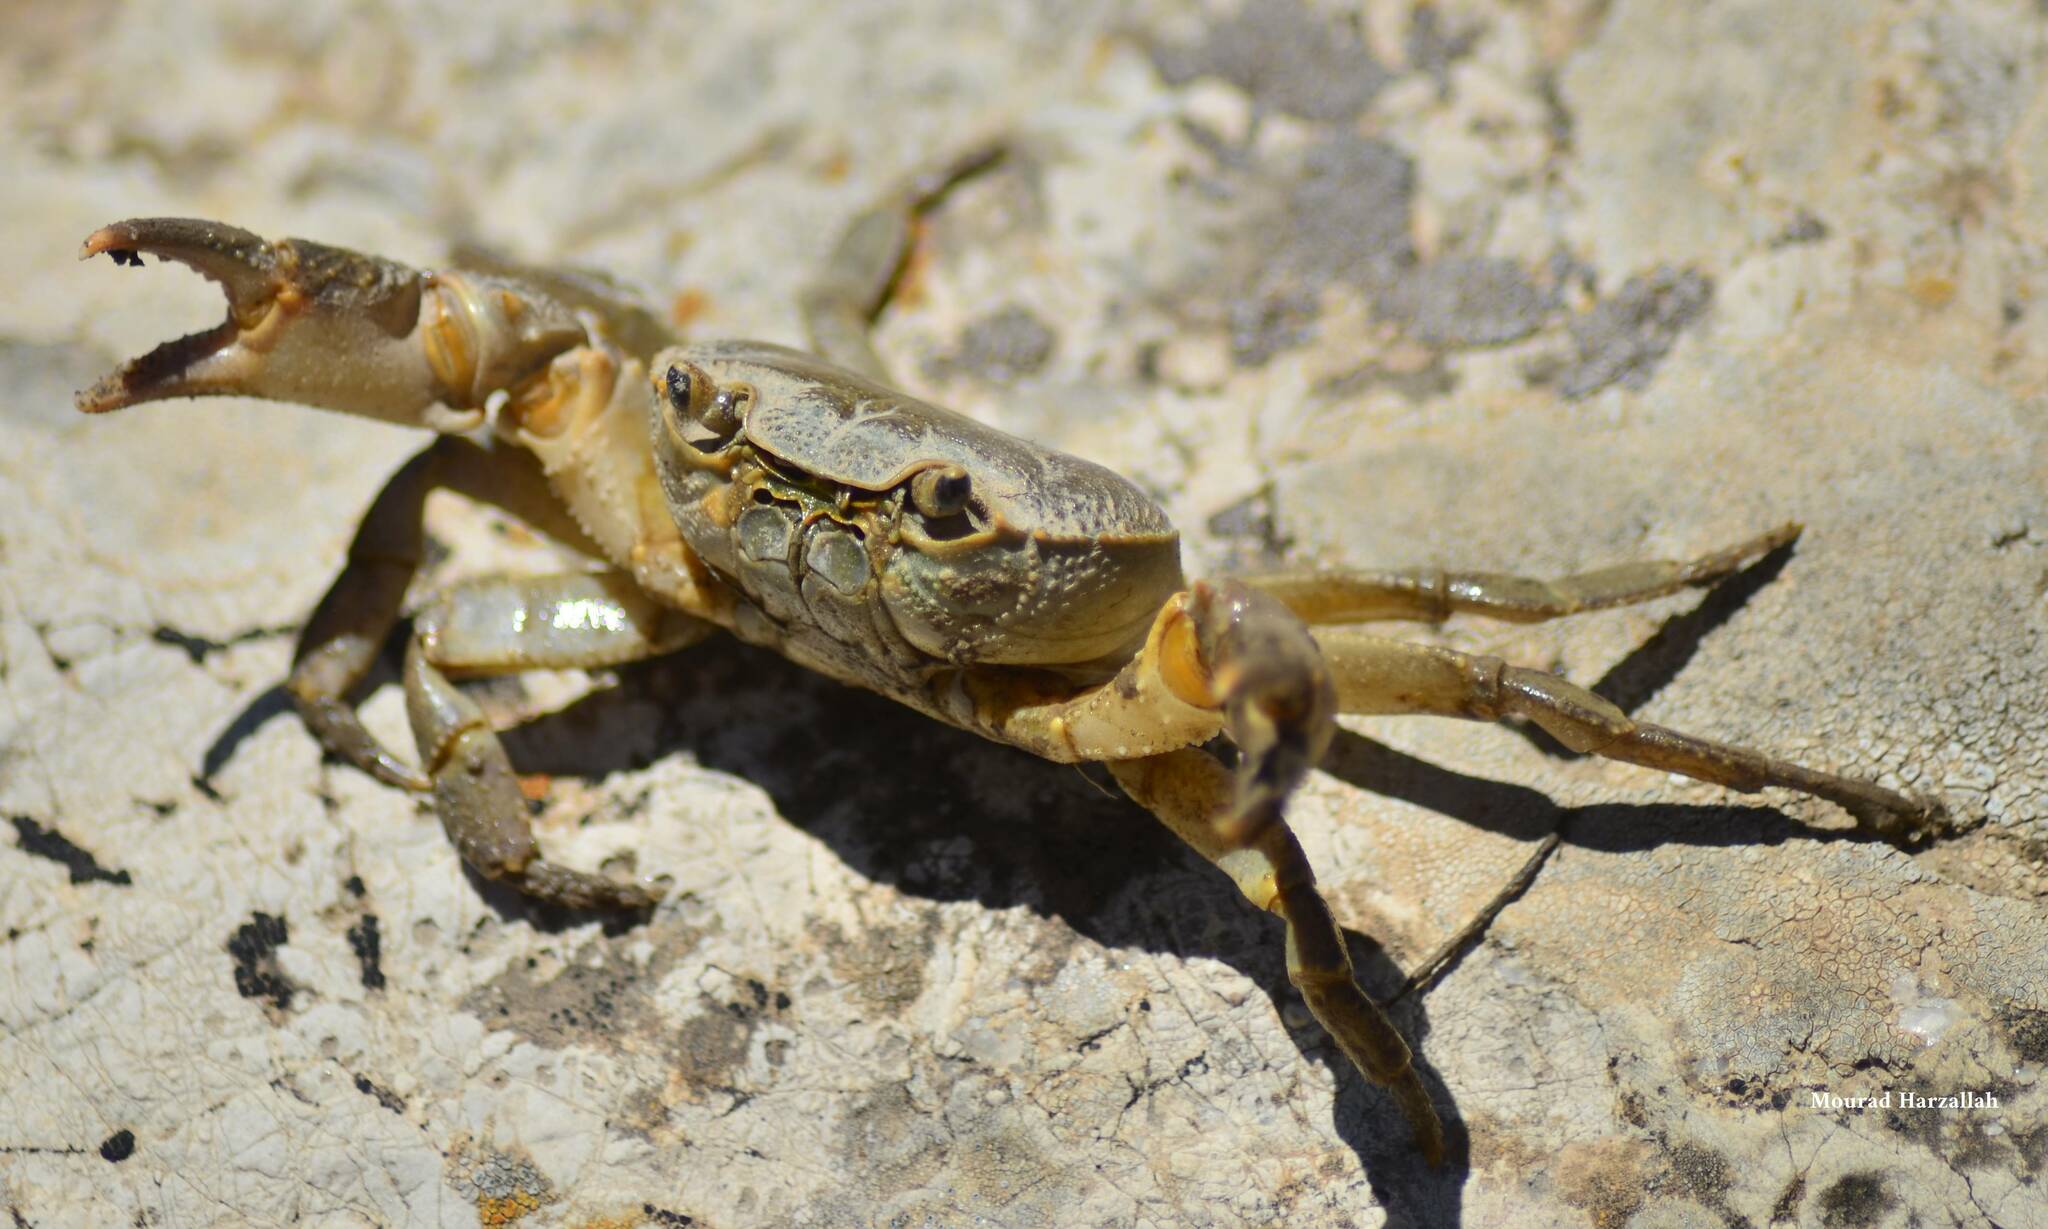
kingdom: Animalia
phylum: Arthropoda
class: Malacostraca
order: Decapoda
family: Potamidae
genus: Potamon
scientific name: Potamon algeriense
